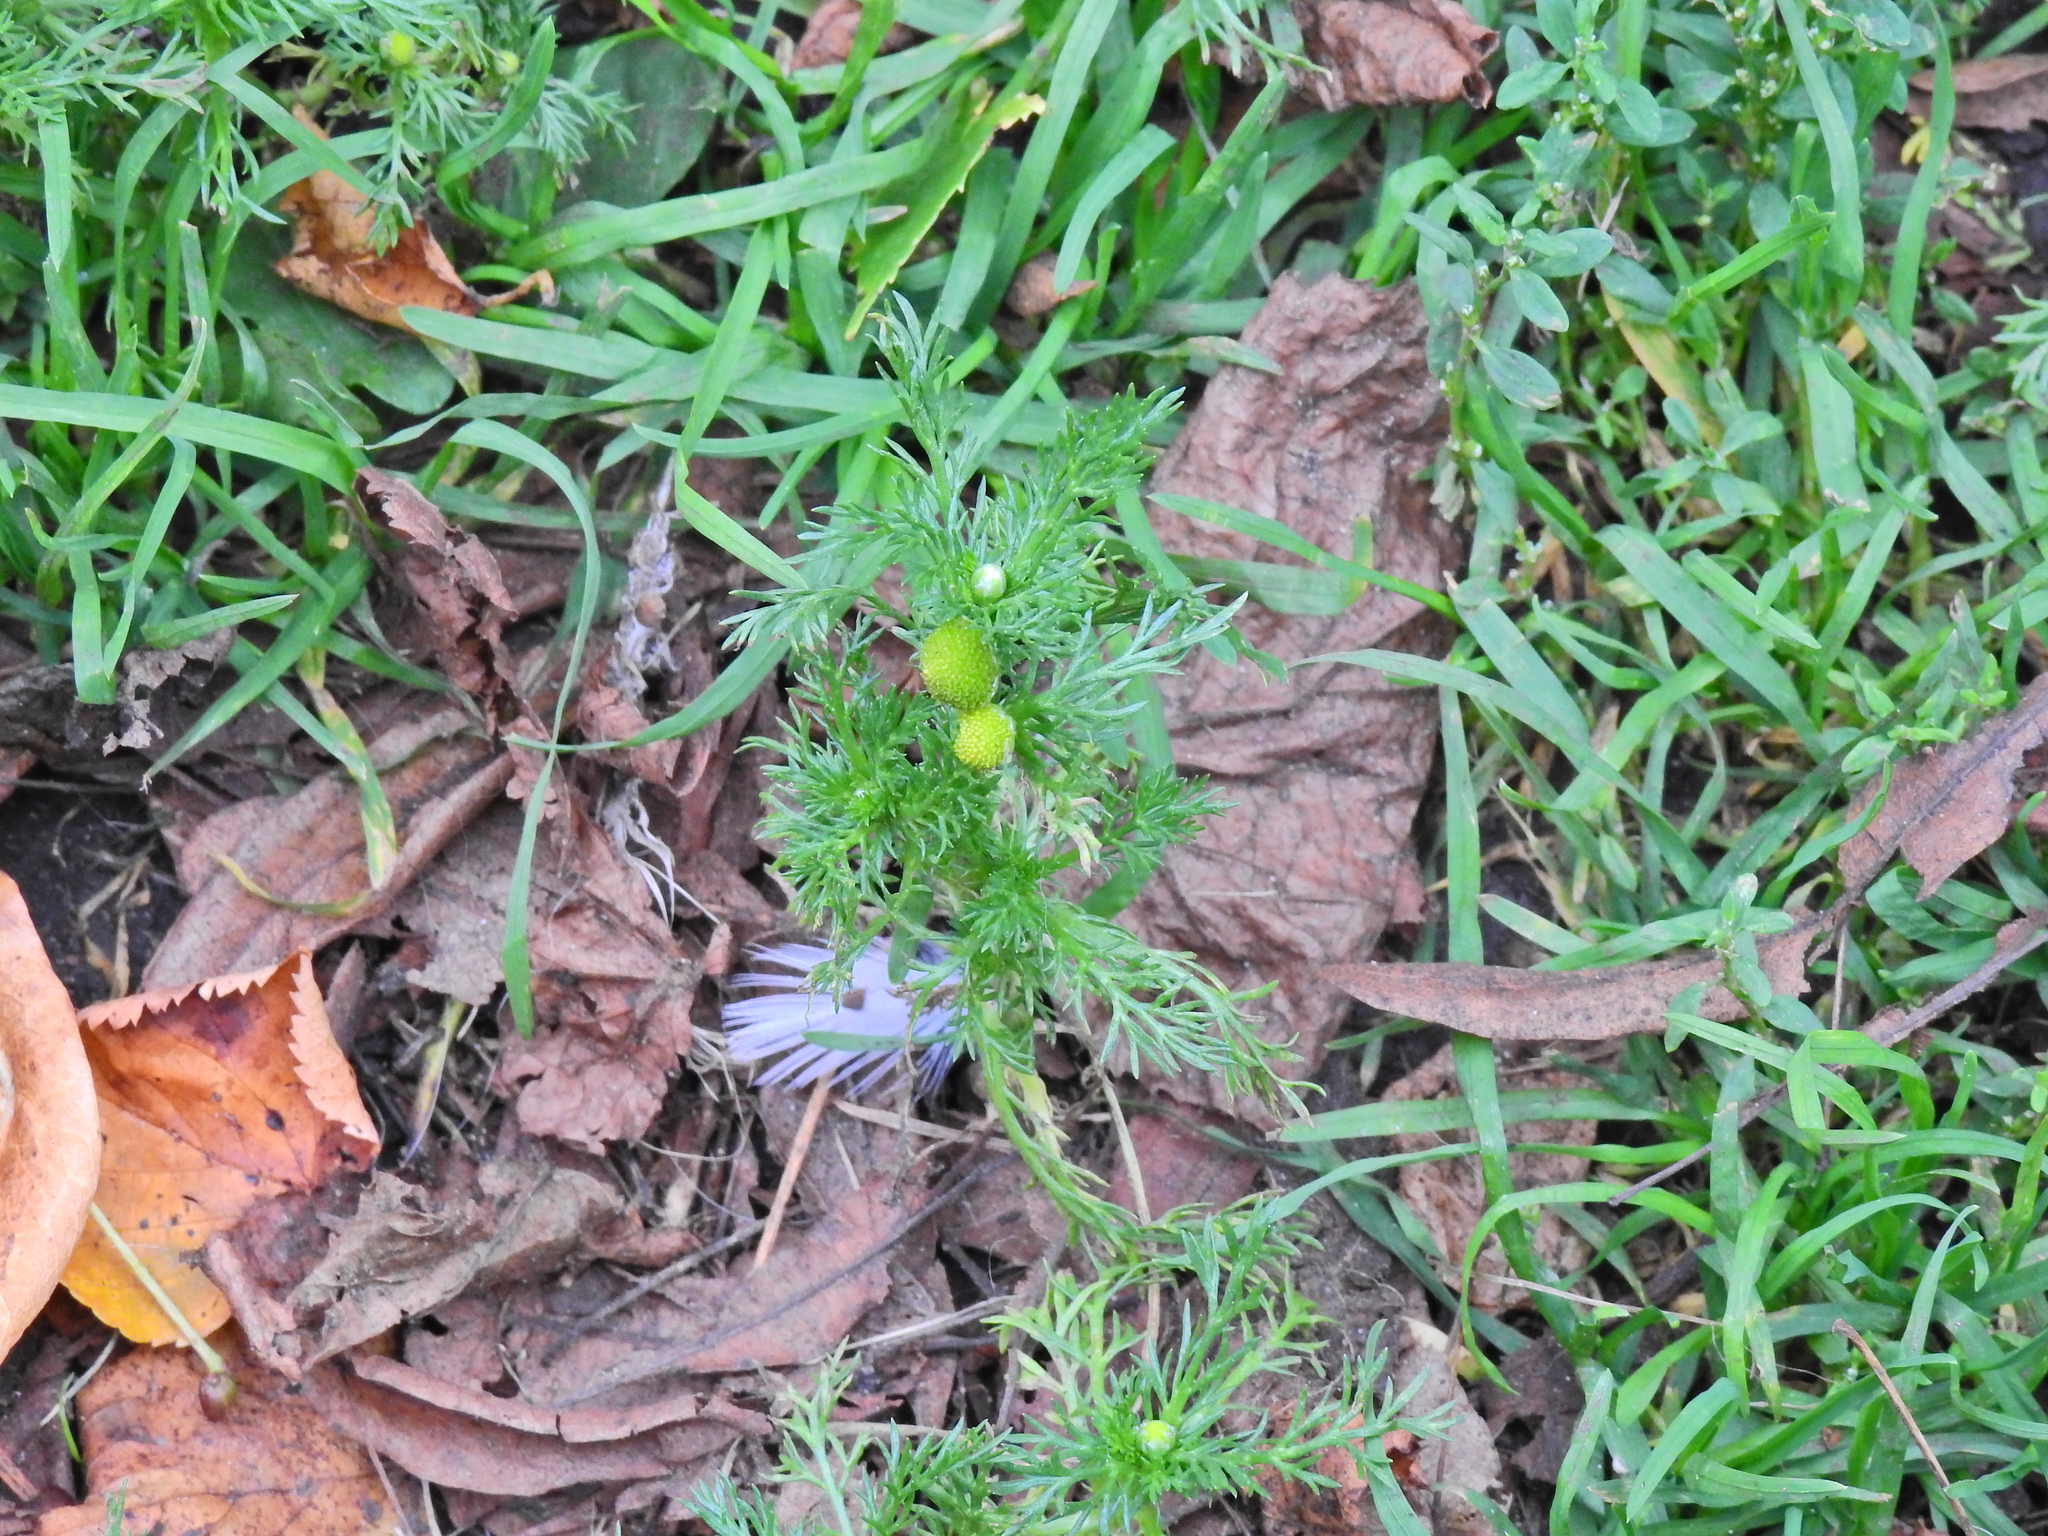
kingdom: Plantae
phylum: Tracheophyta
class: Magnoliopsida
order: Asterales
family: Asteraceae
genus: Matricaria
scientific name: Matricaria discoidea
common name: Disc mayweed
